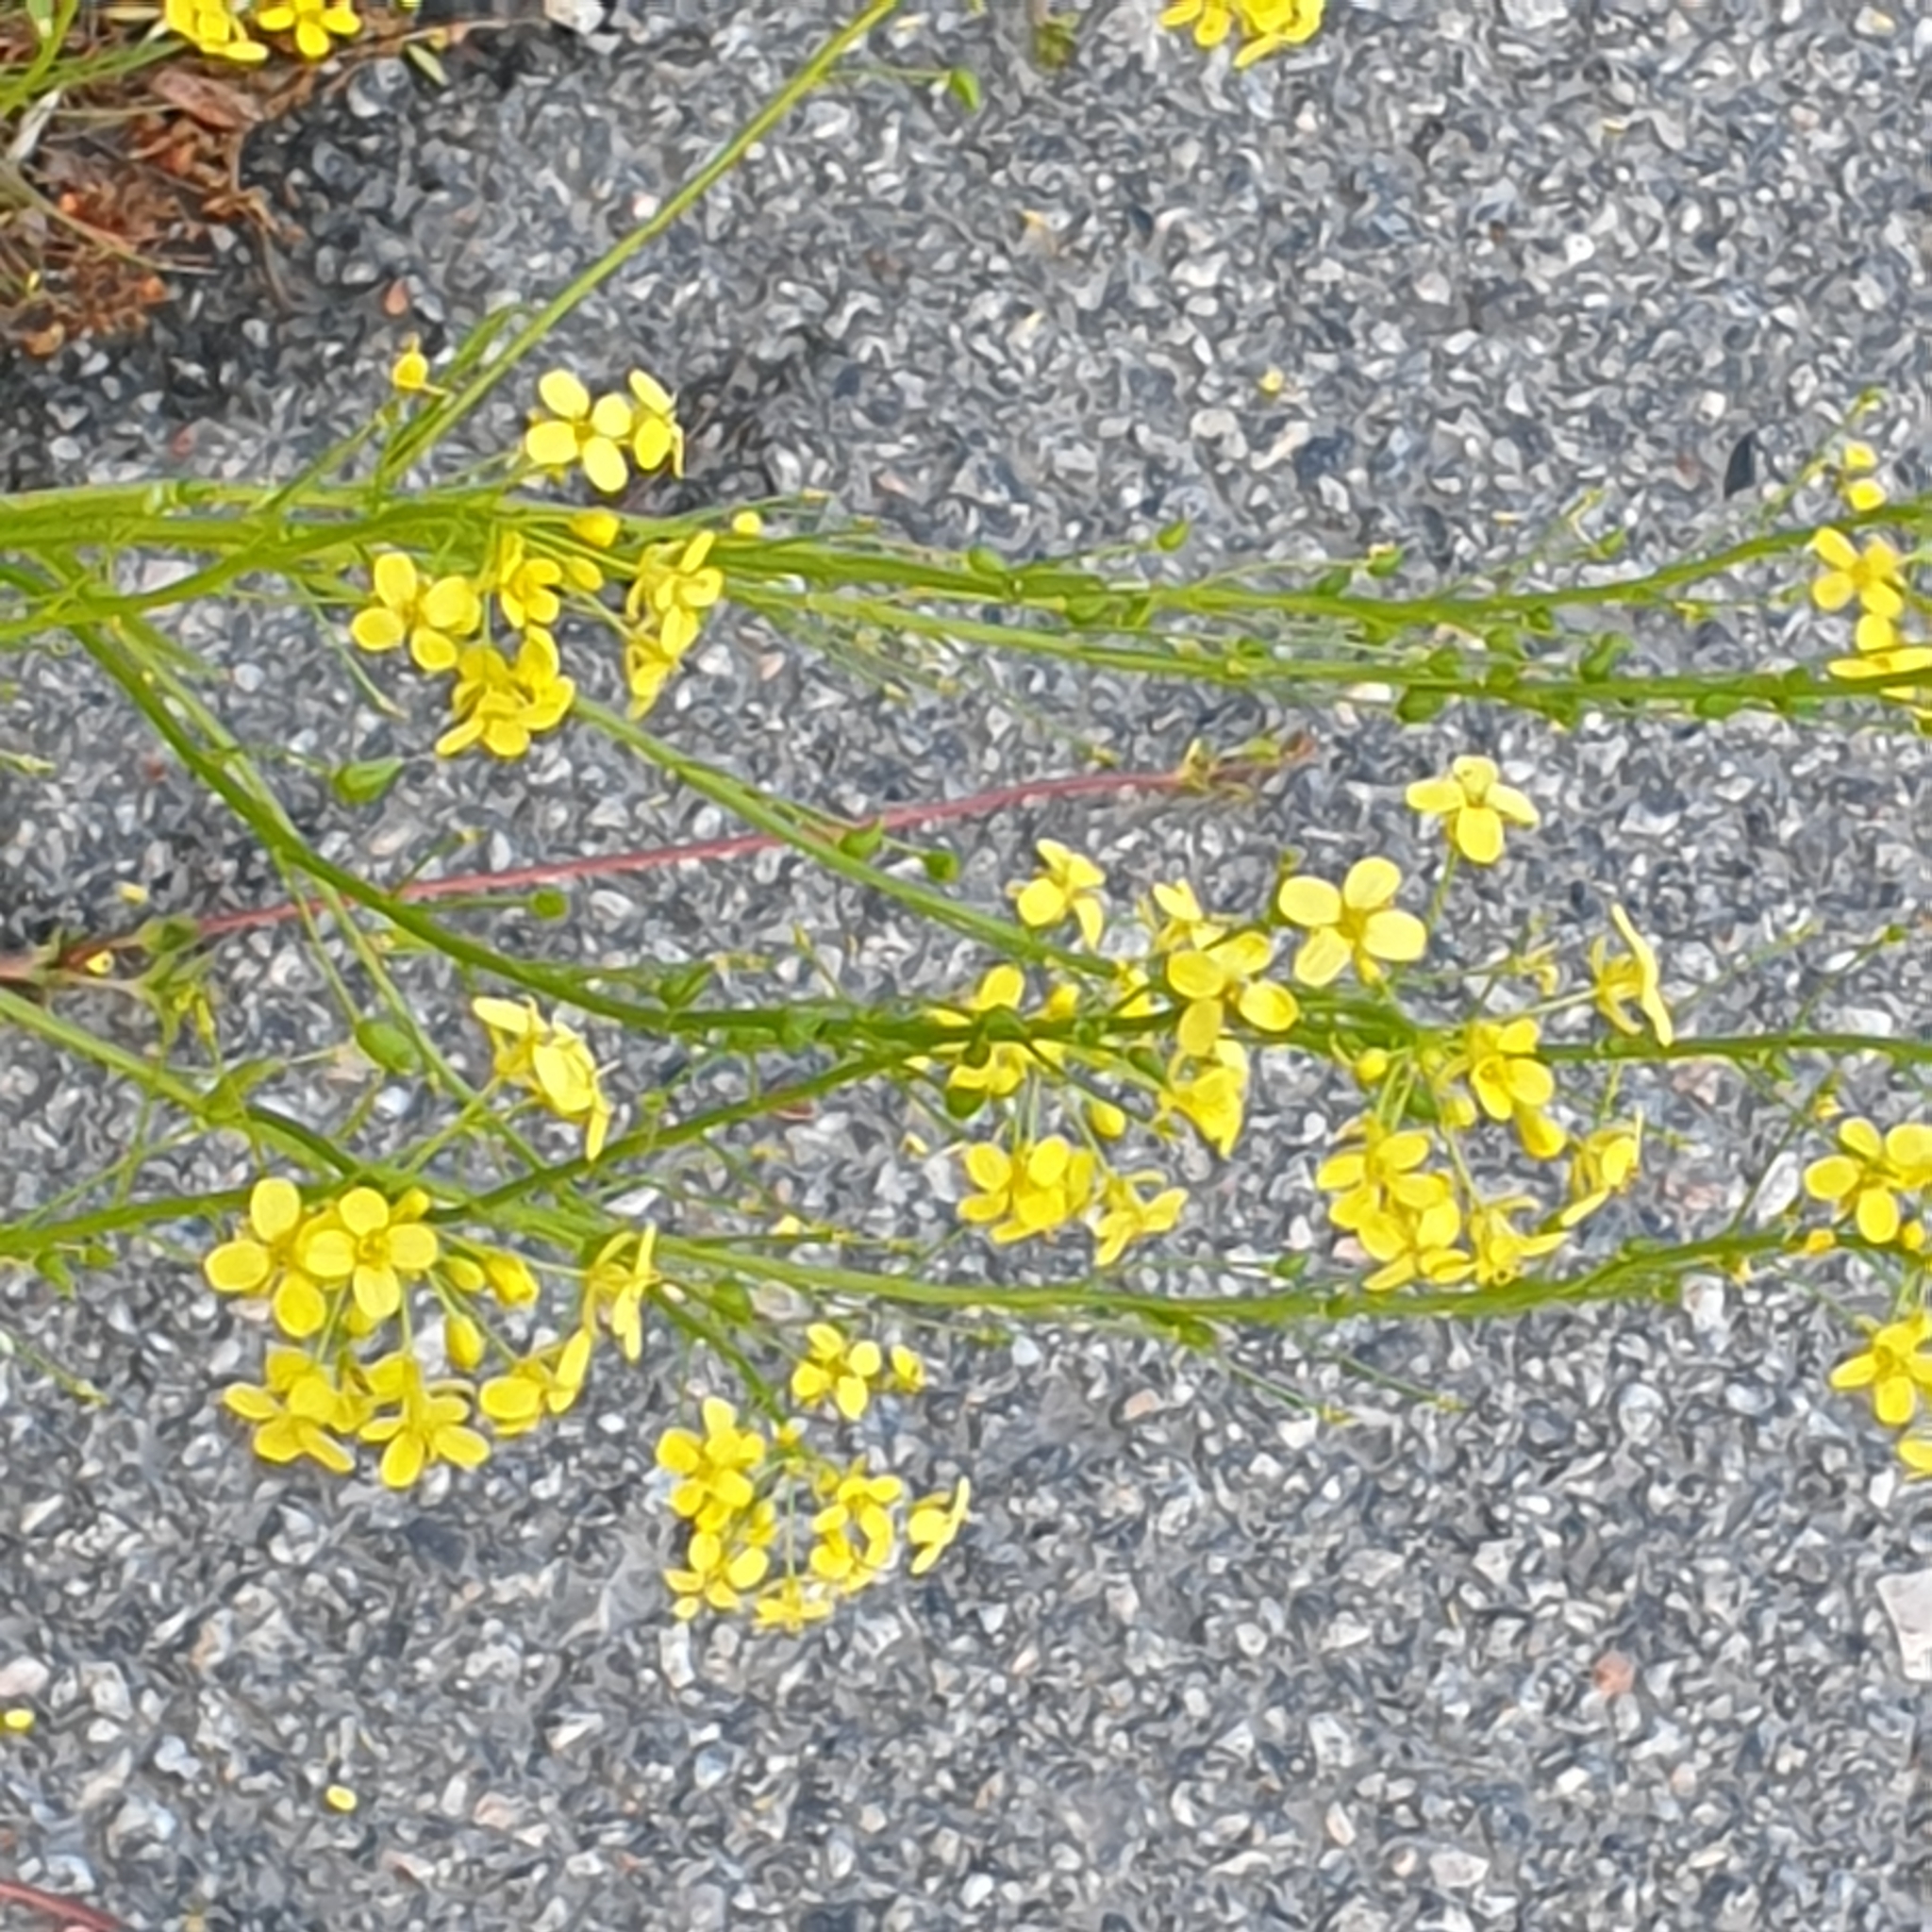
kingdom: Plantae
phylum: Tracheophyta
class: Magnoliopsida
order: Brassicales
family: Brassicaceae
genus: Bunias
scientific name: Bunias orientalis
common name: Warty-cabbage
